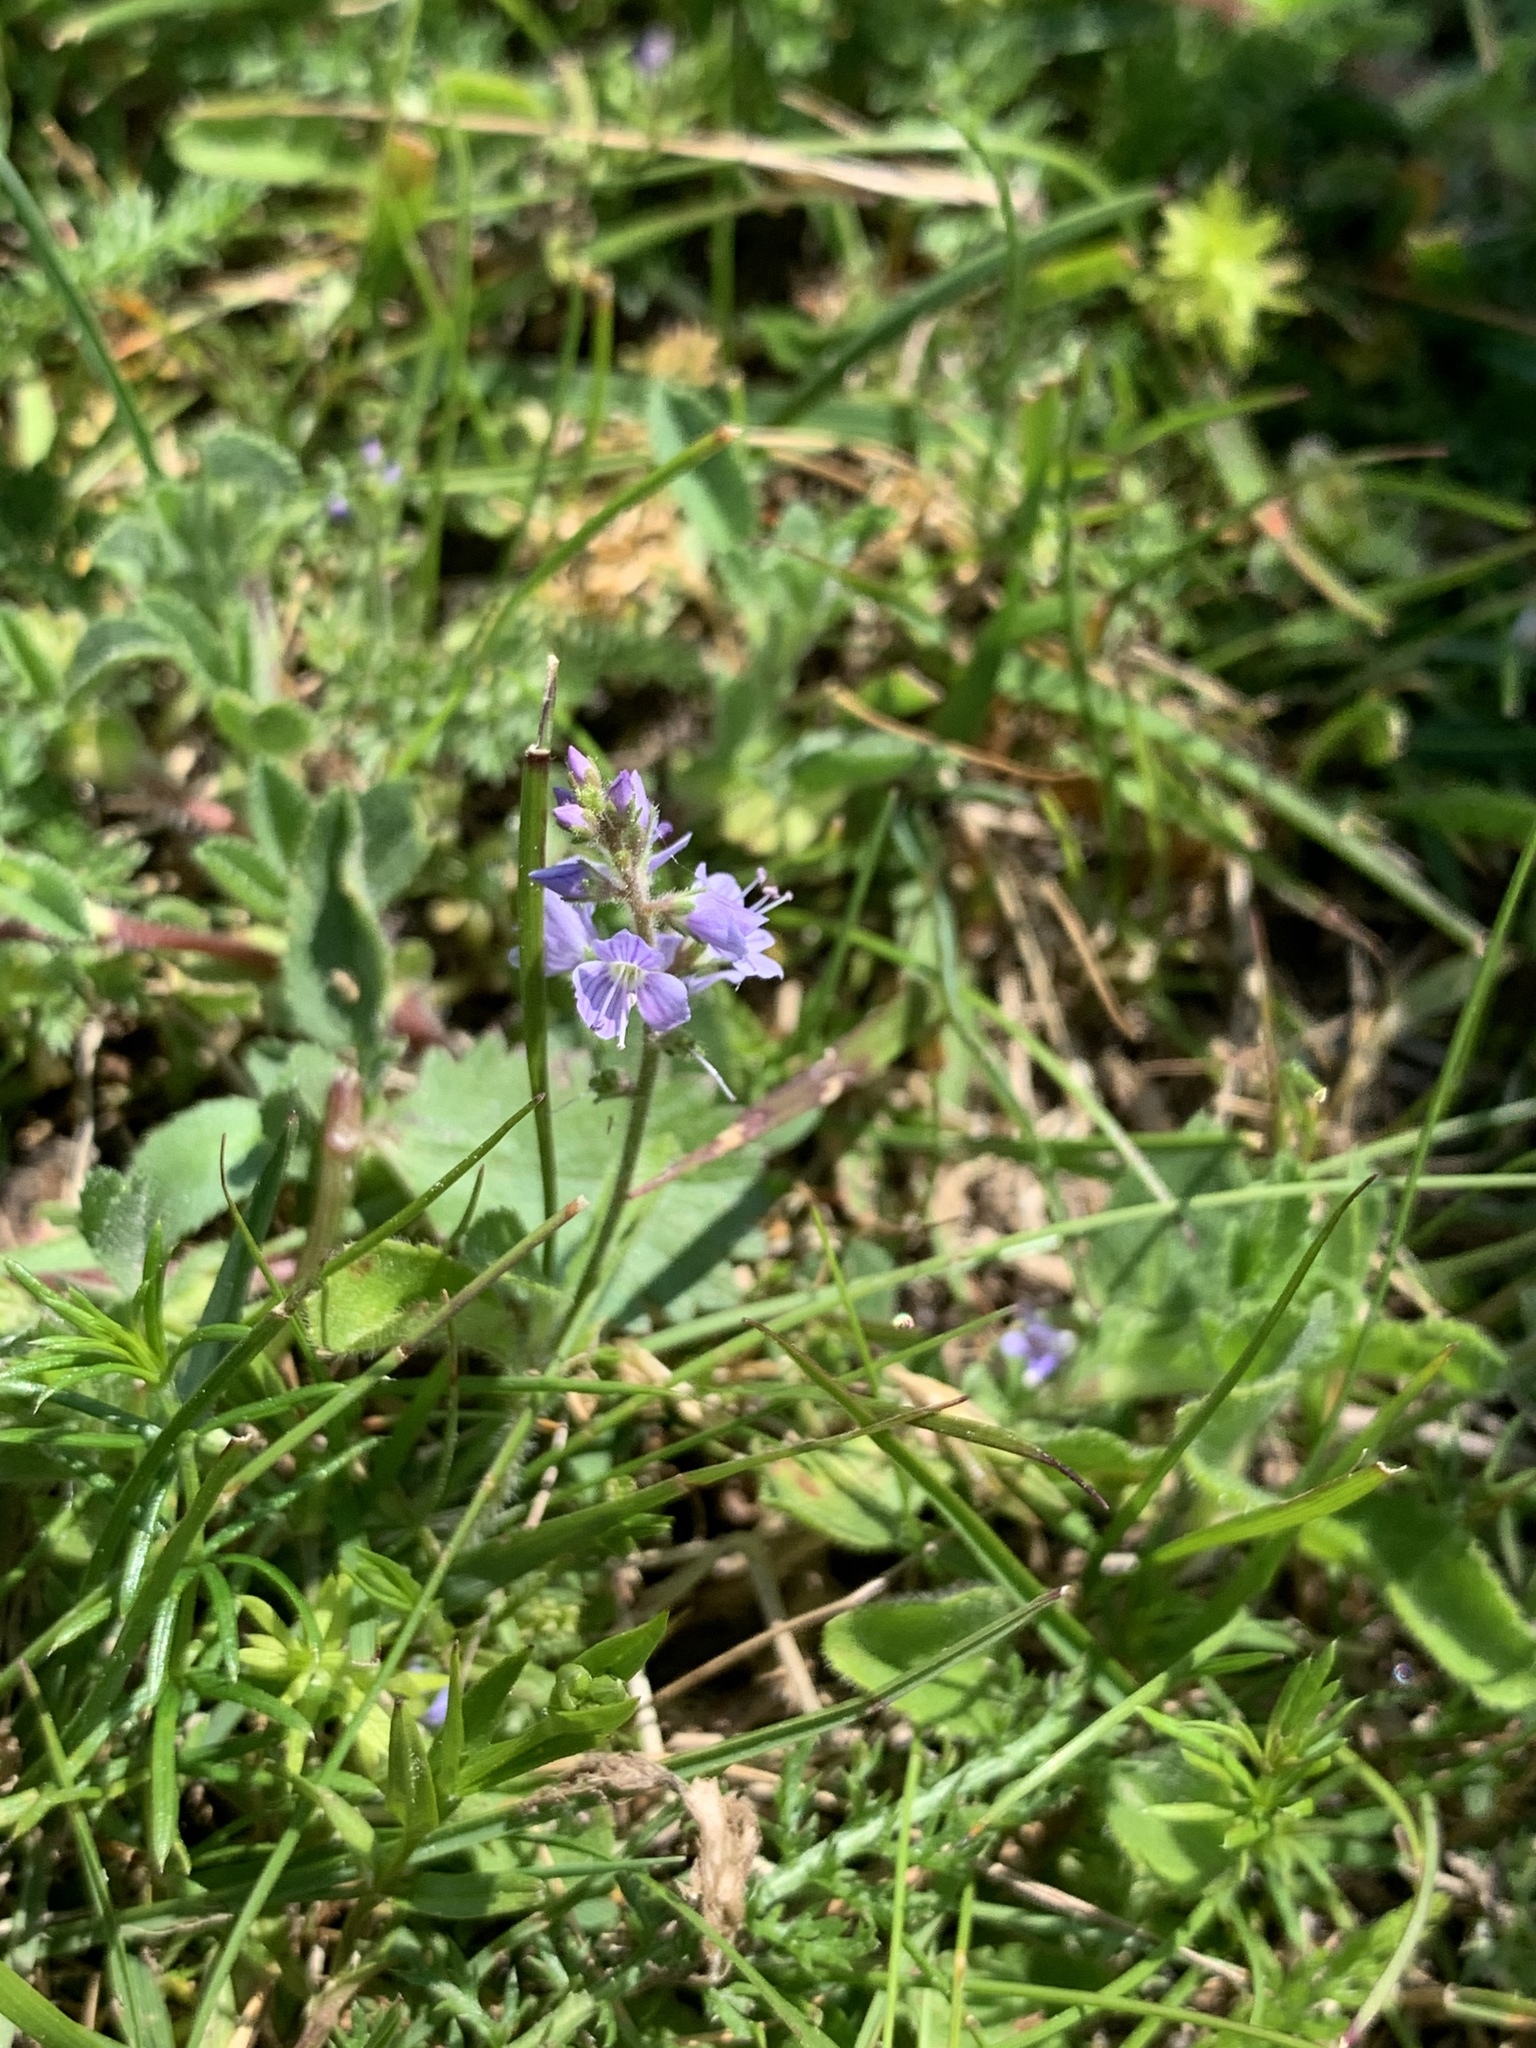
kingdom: Plantae
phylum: Tracheophyta
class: Magnoliopsida
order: Lamiales
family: Plantaginaceae
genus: Veronica
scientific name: Veronica officinalis
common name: Common speedwell
